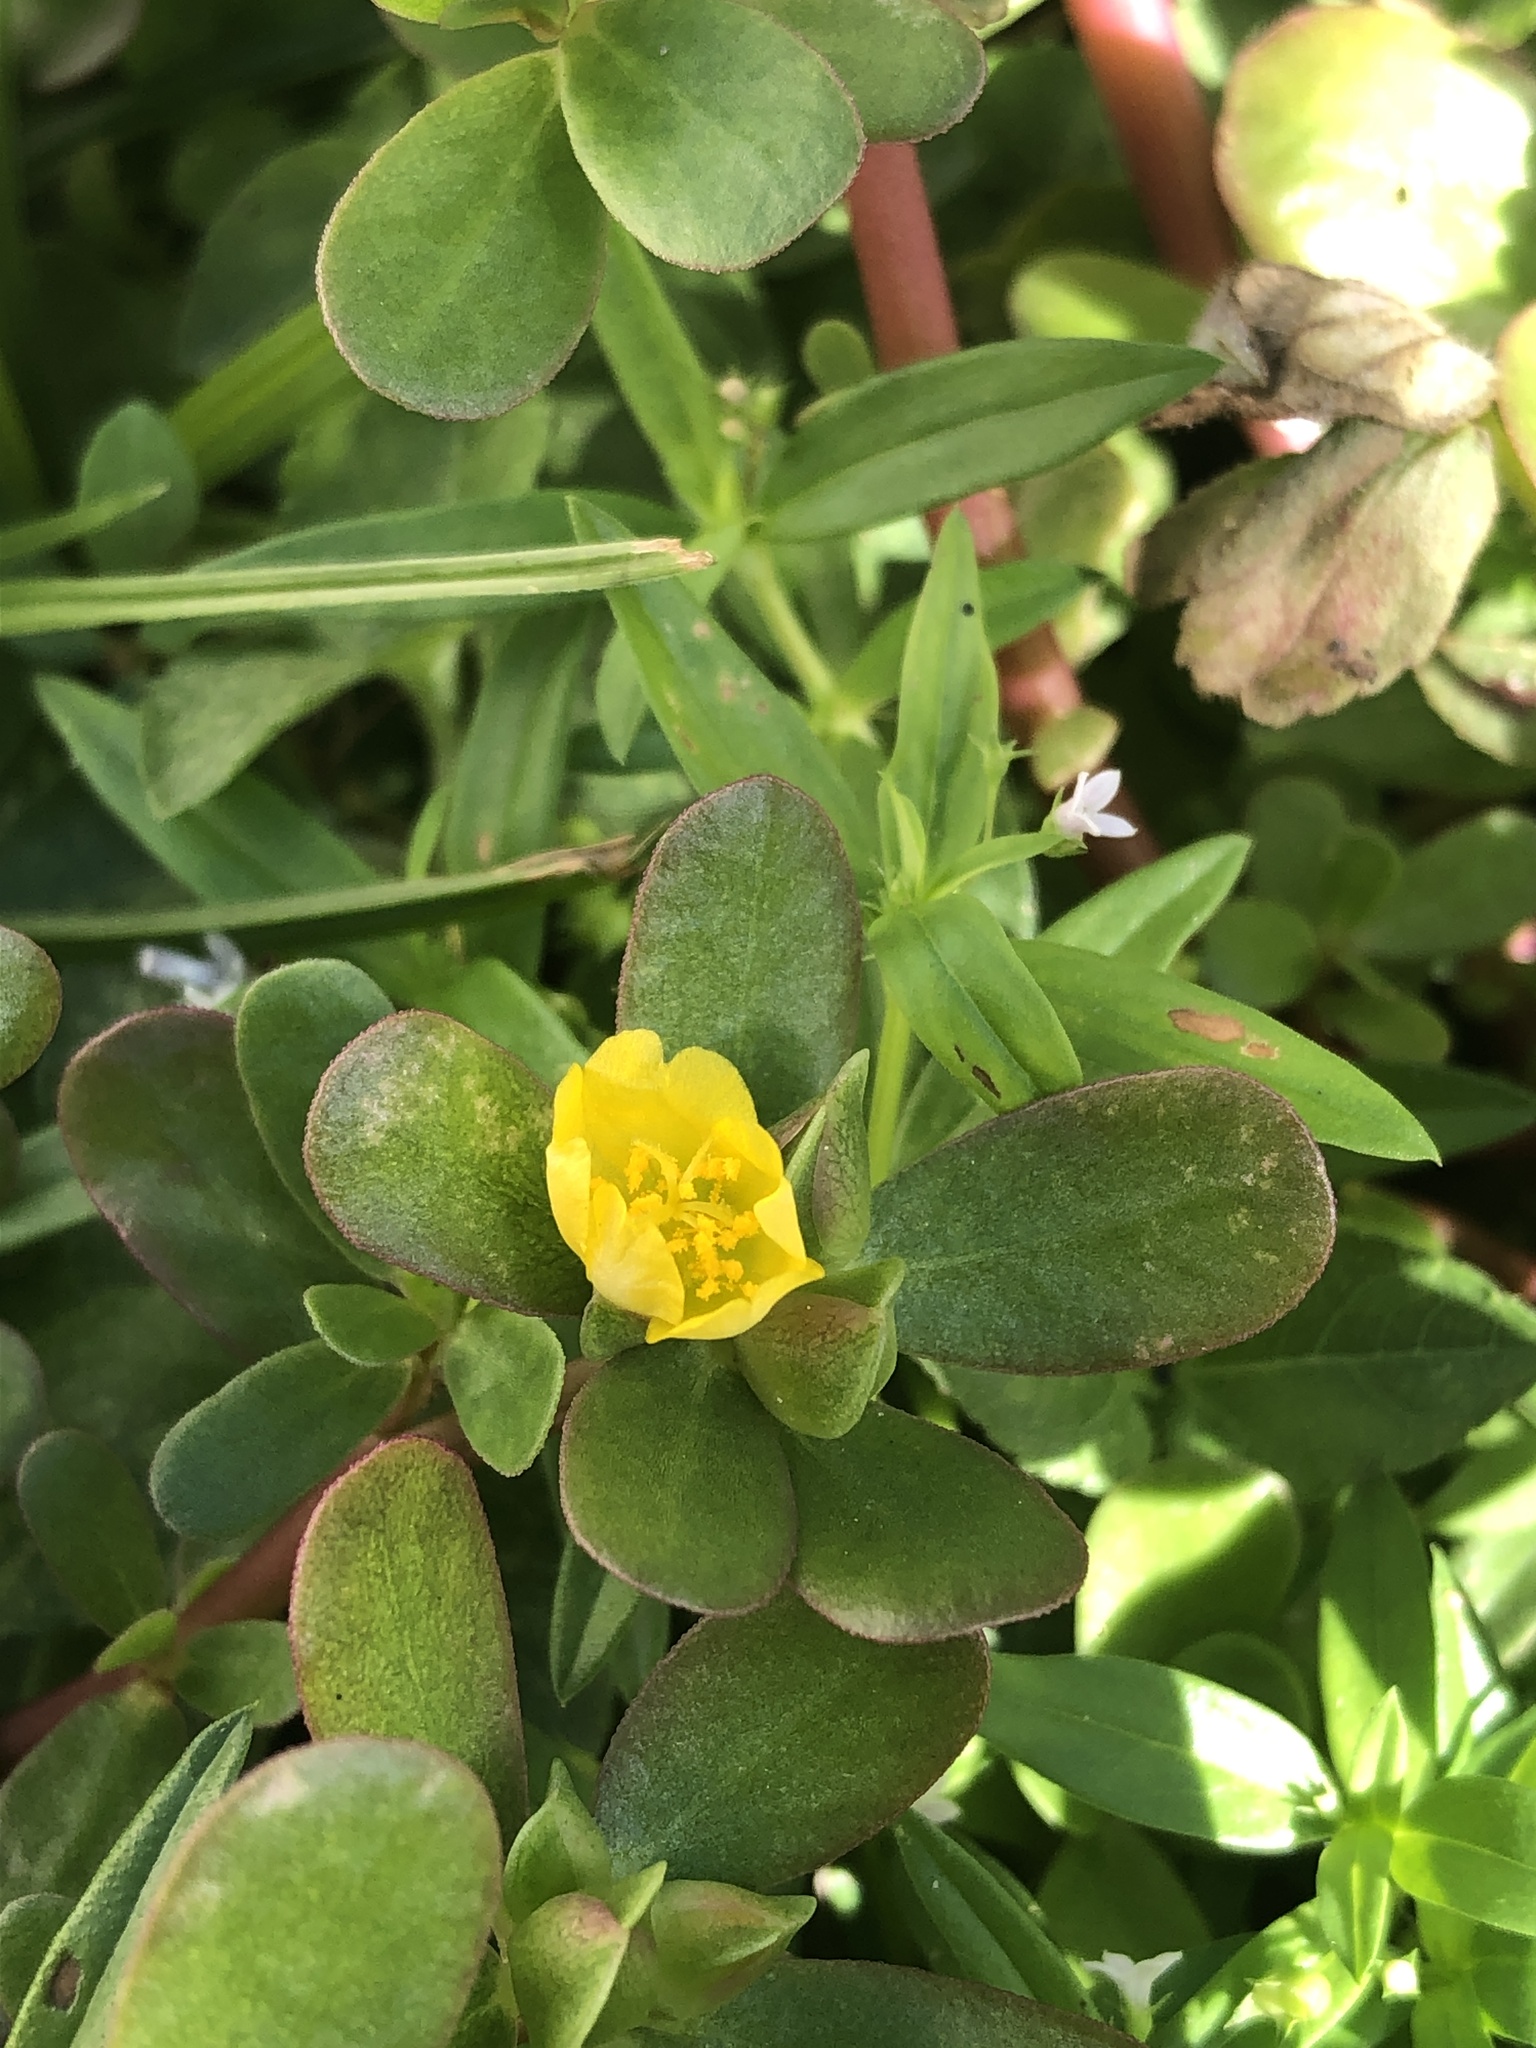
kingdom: Plantae
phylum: Tracheophyta
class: Magnoliopsida
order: Caryophyllales
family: Portulacaceae
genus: Portulaca
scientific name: Portulaca oleracea
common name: Common purslane
